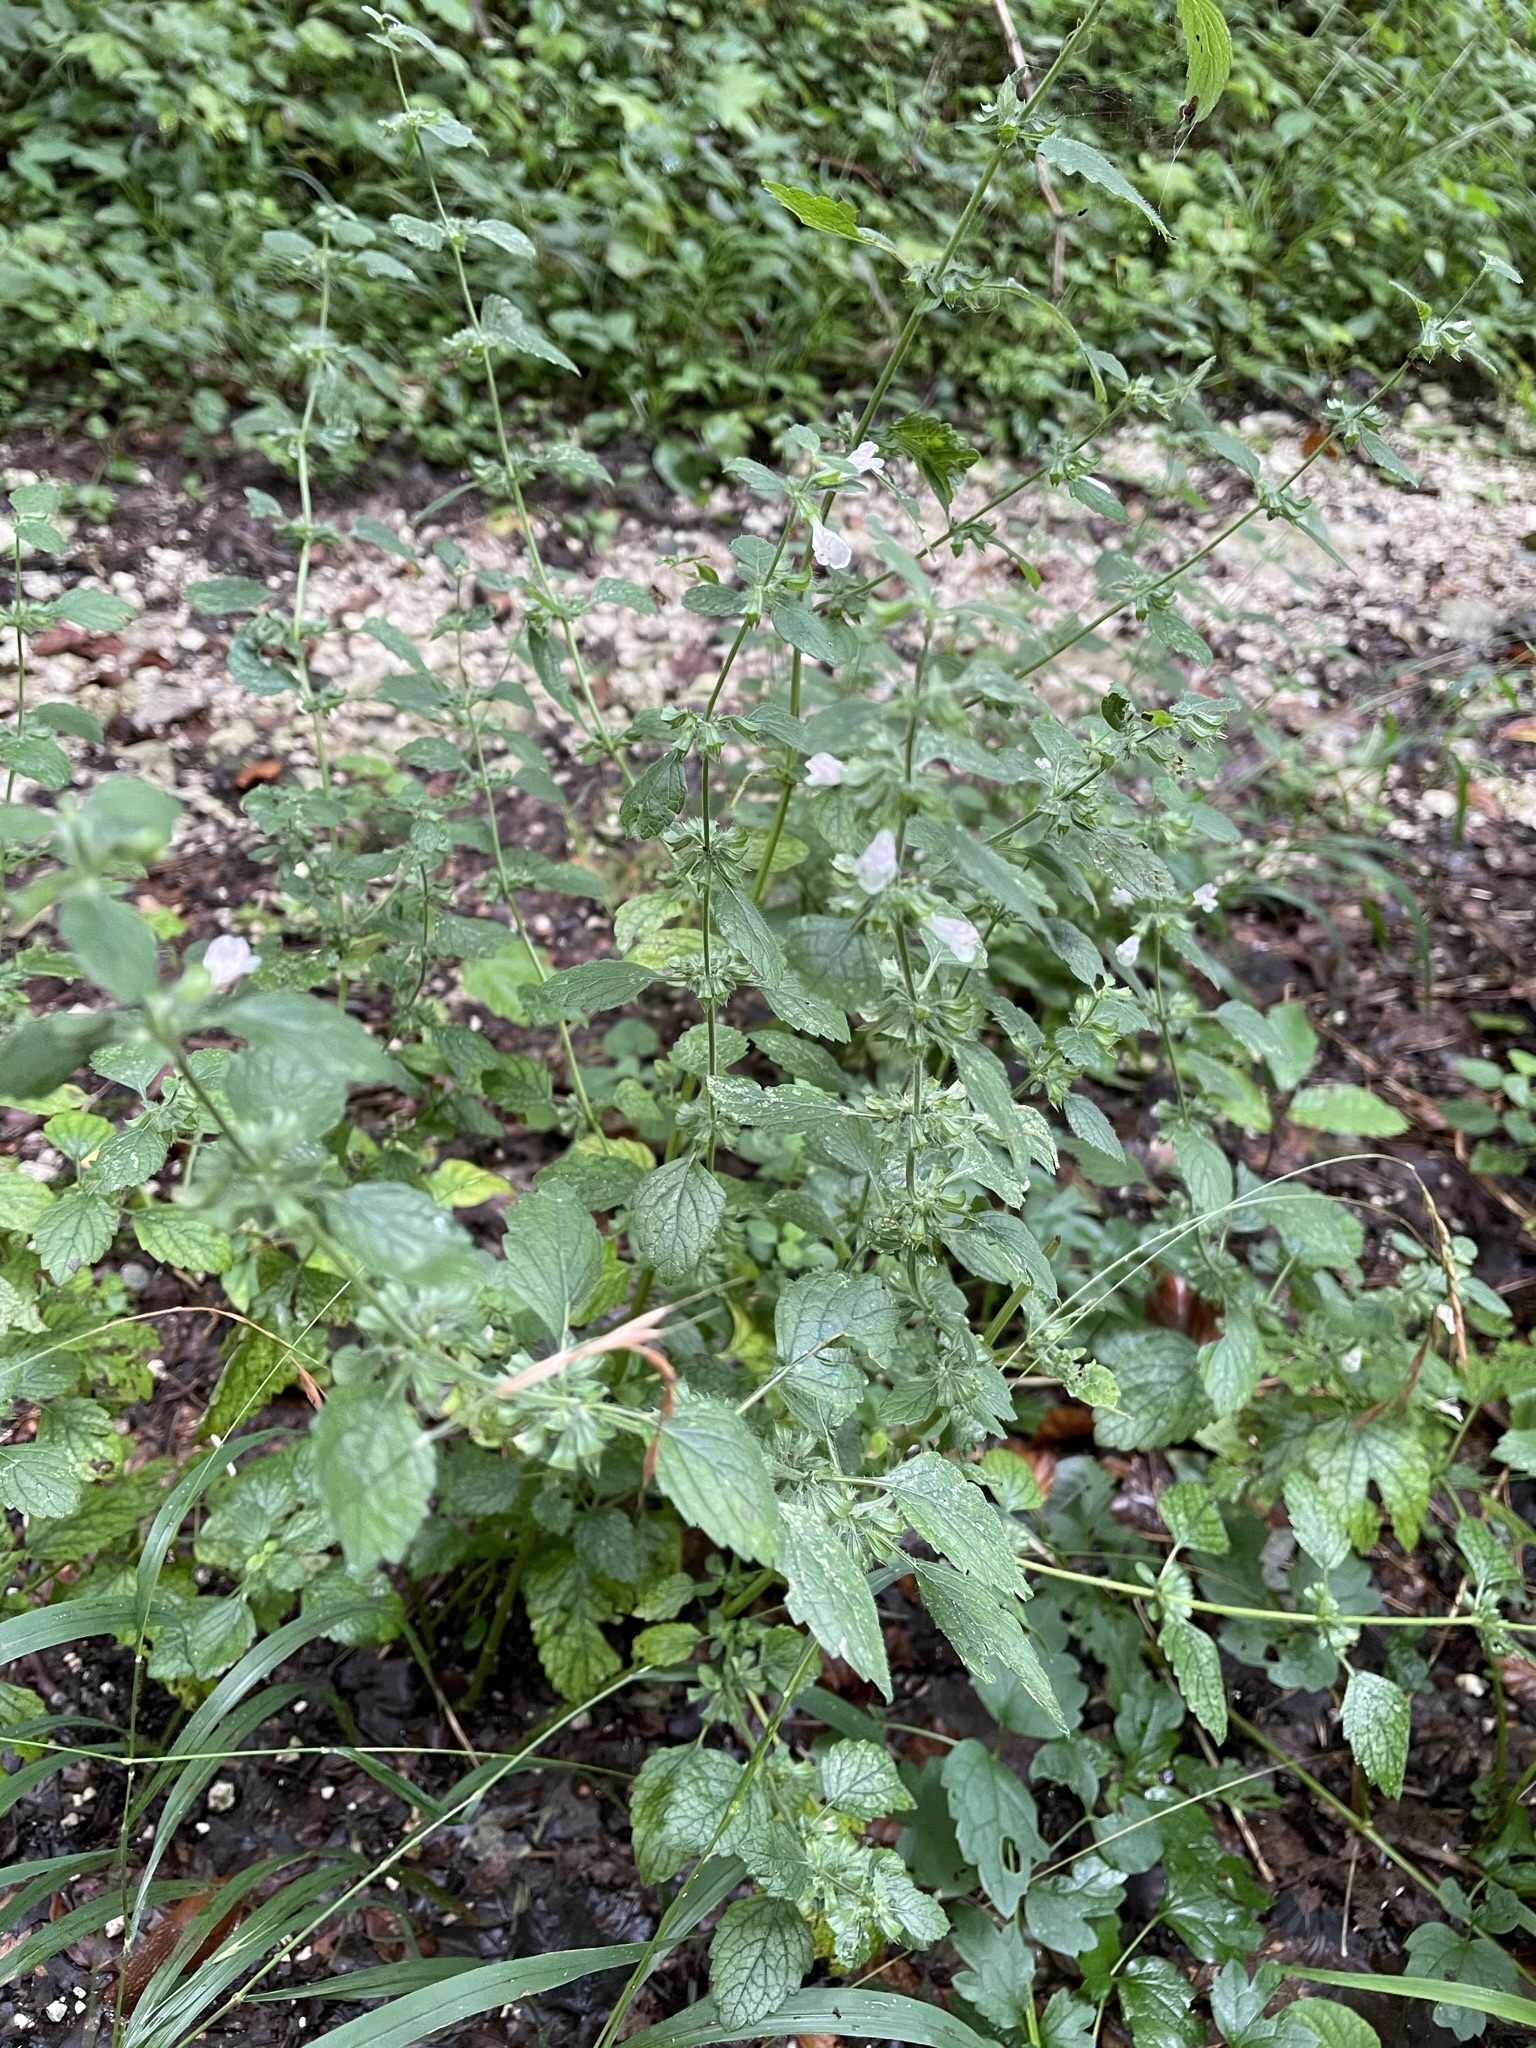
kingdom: Plantae
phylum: Tracheophyta
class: Magnoliopsida
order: Lamiales
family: Lamiaceae
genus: Melissa
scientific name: Melissa officinalis
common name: Balm
